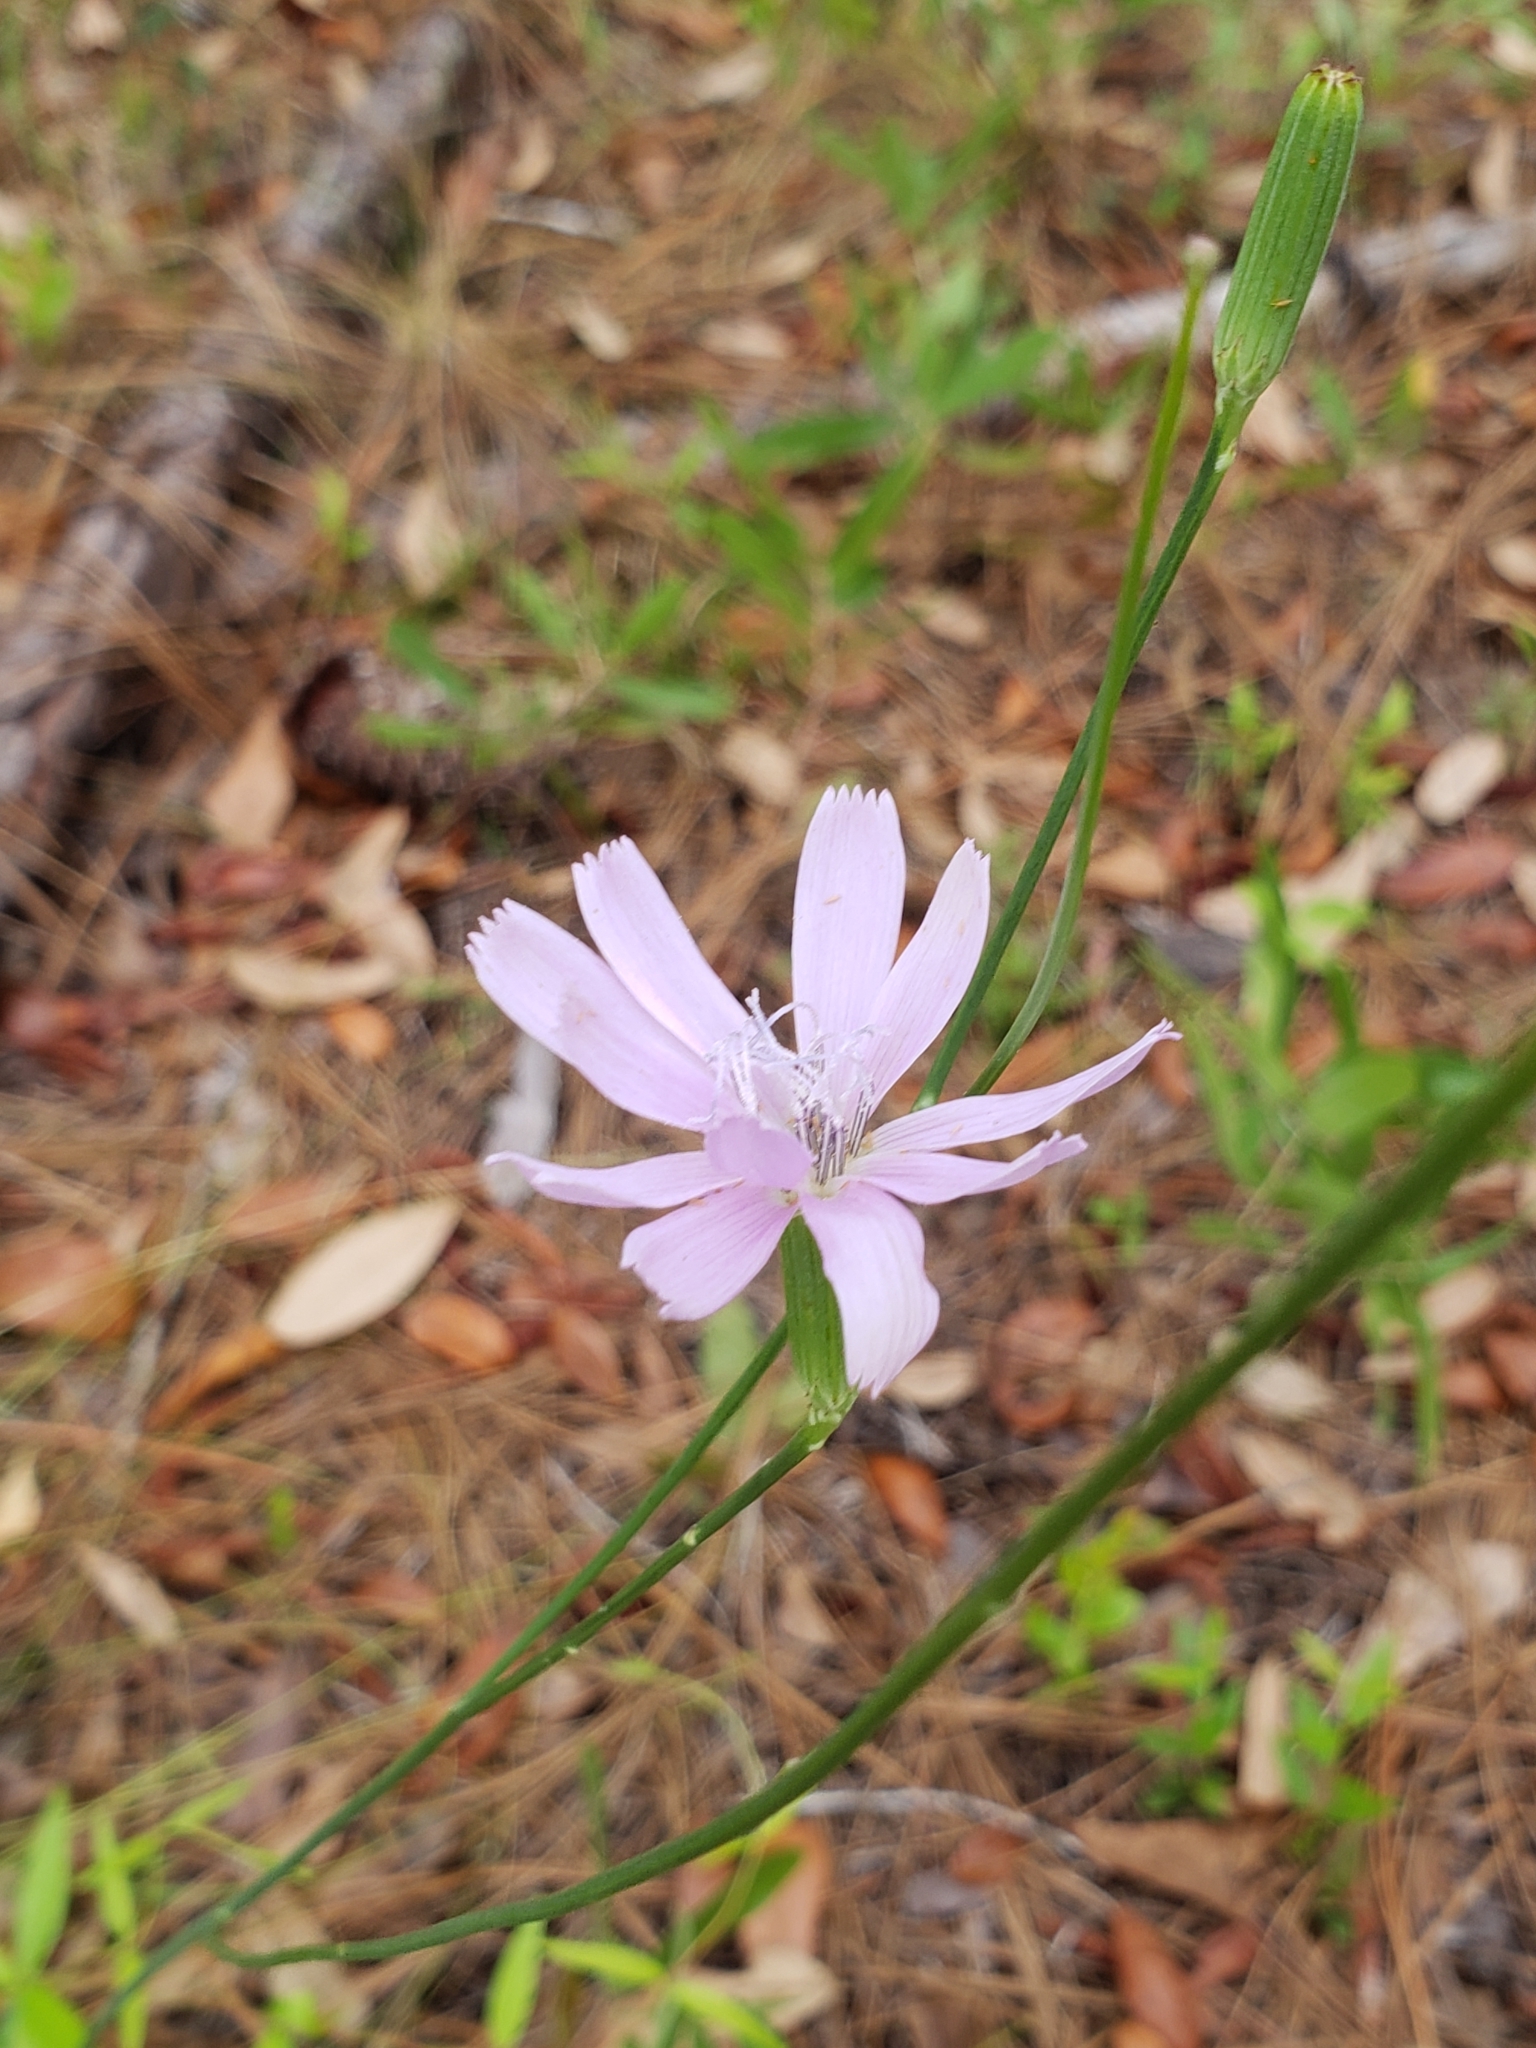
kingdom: Plantae
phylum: Tracheophyta
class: Magnoliopsida
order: Asterales
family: Asteraceae
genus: Lygodesmia
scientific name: Lygodesmia aphylla
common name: Rose-rush
